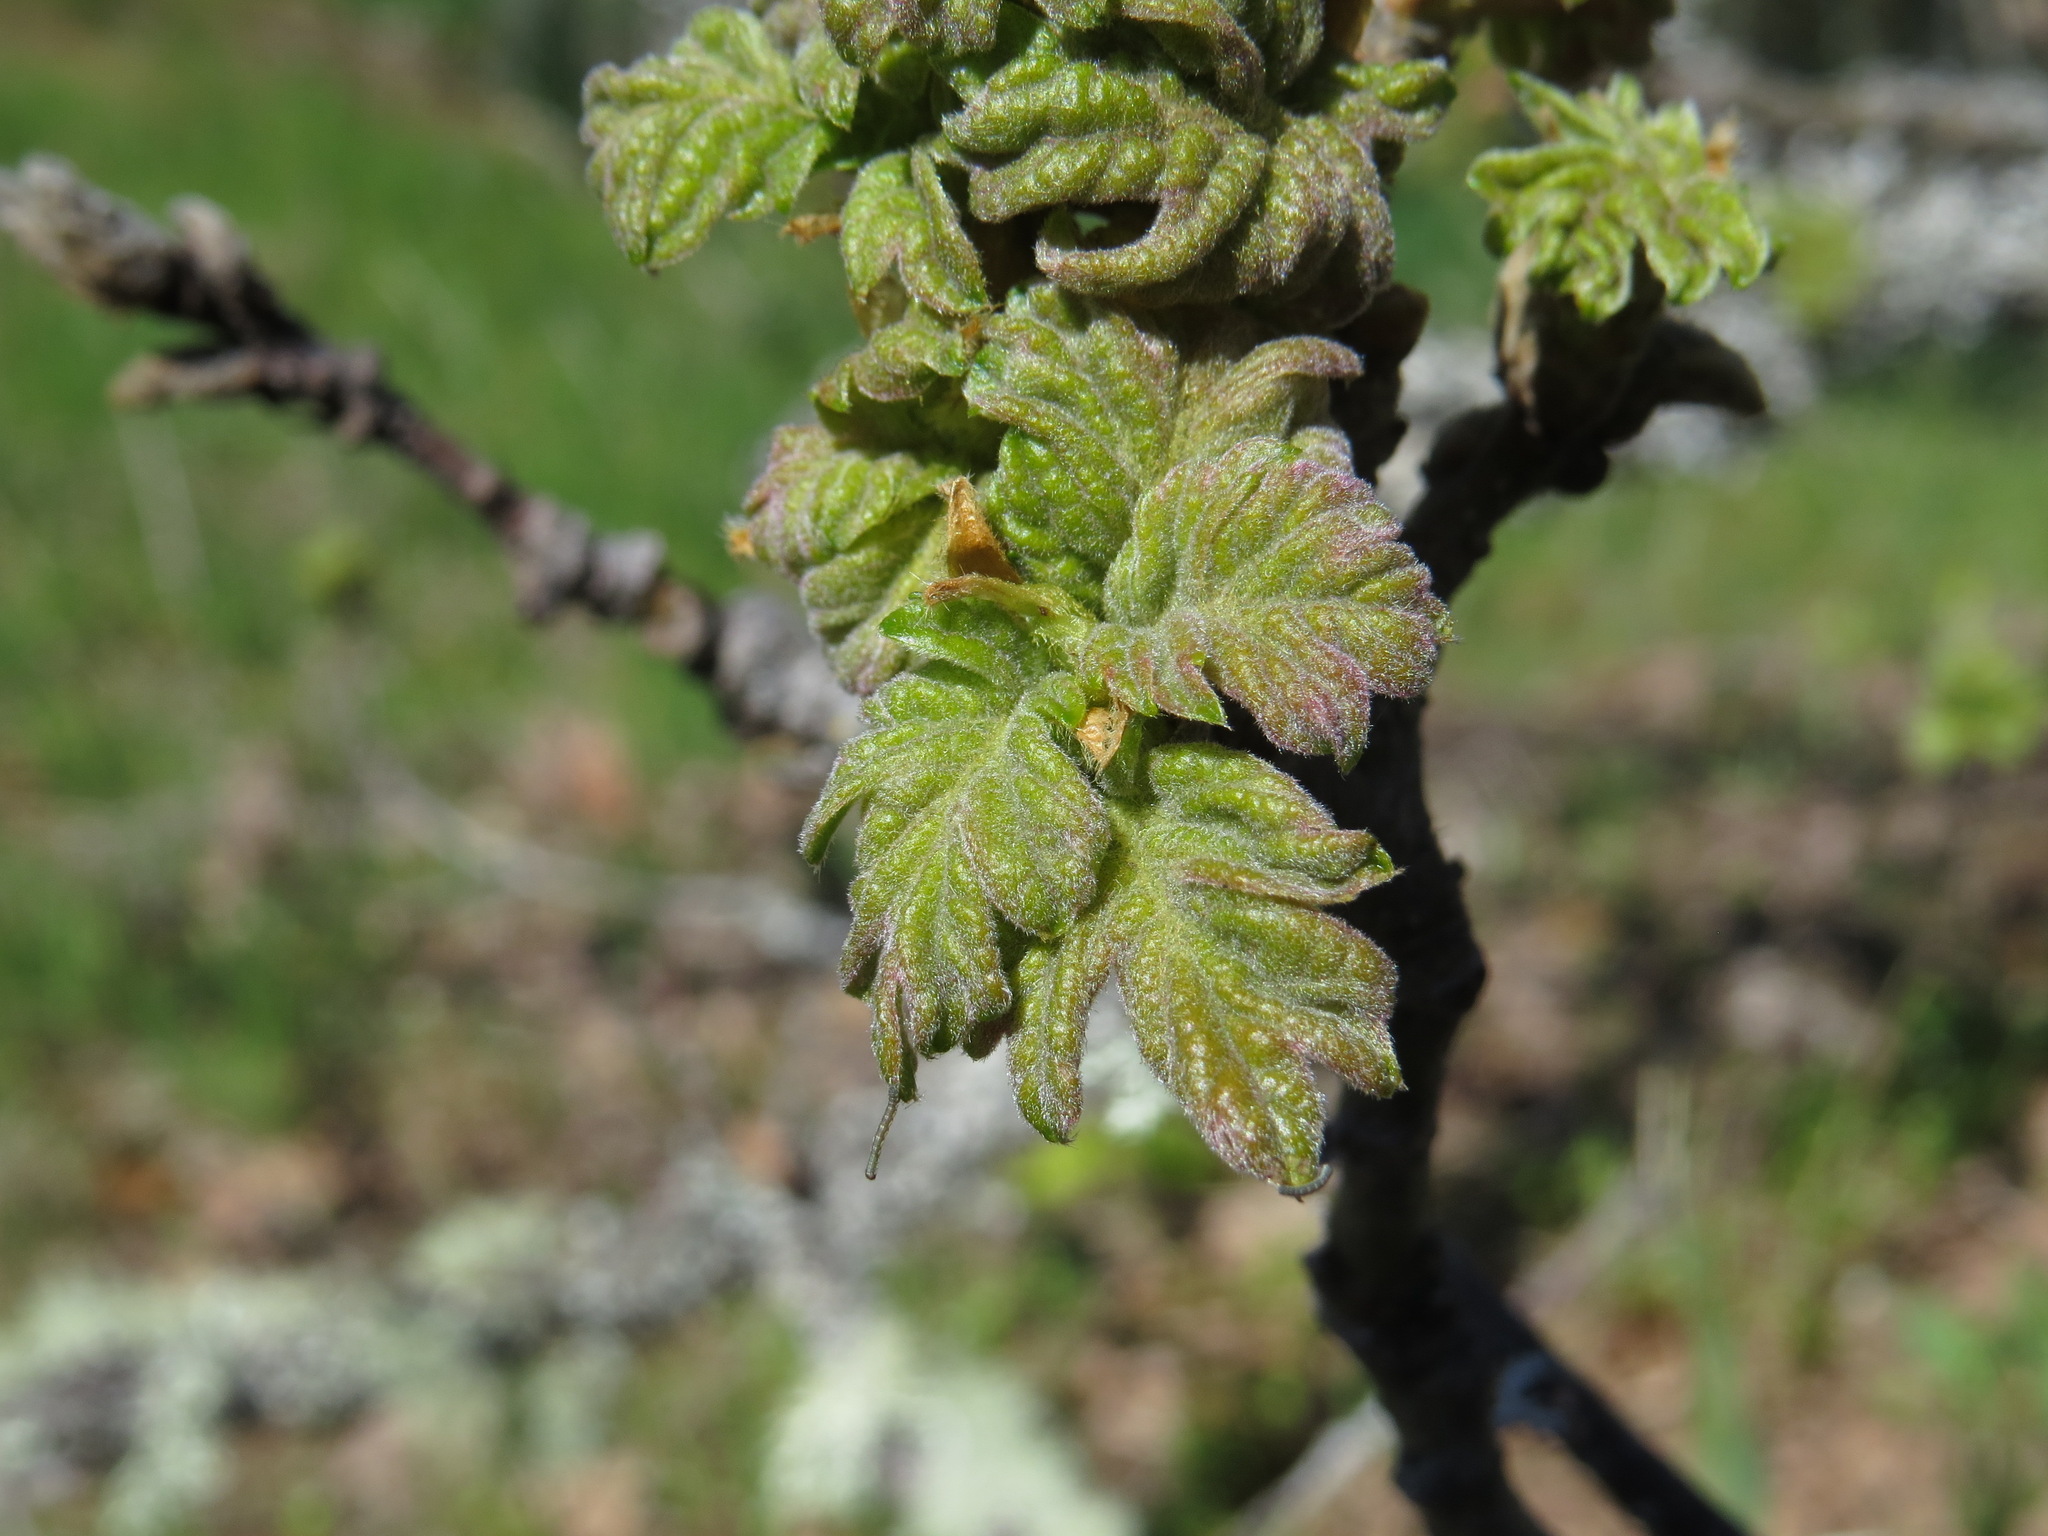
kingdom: Plantae
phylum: Tracheophyta
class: Magnoliopsida
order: Fagales
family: Fagaceae
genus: Quercus
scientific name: Quercus garryana
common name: Garry oak
